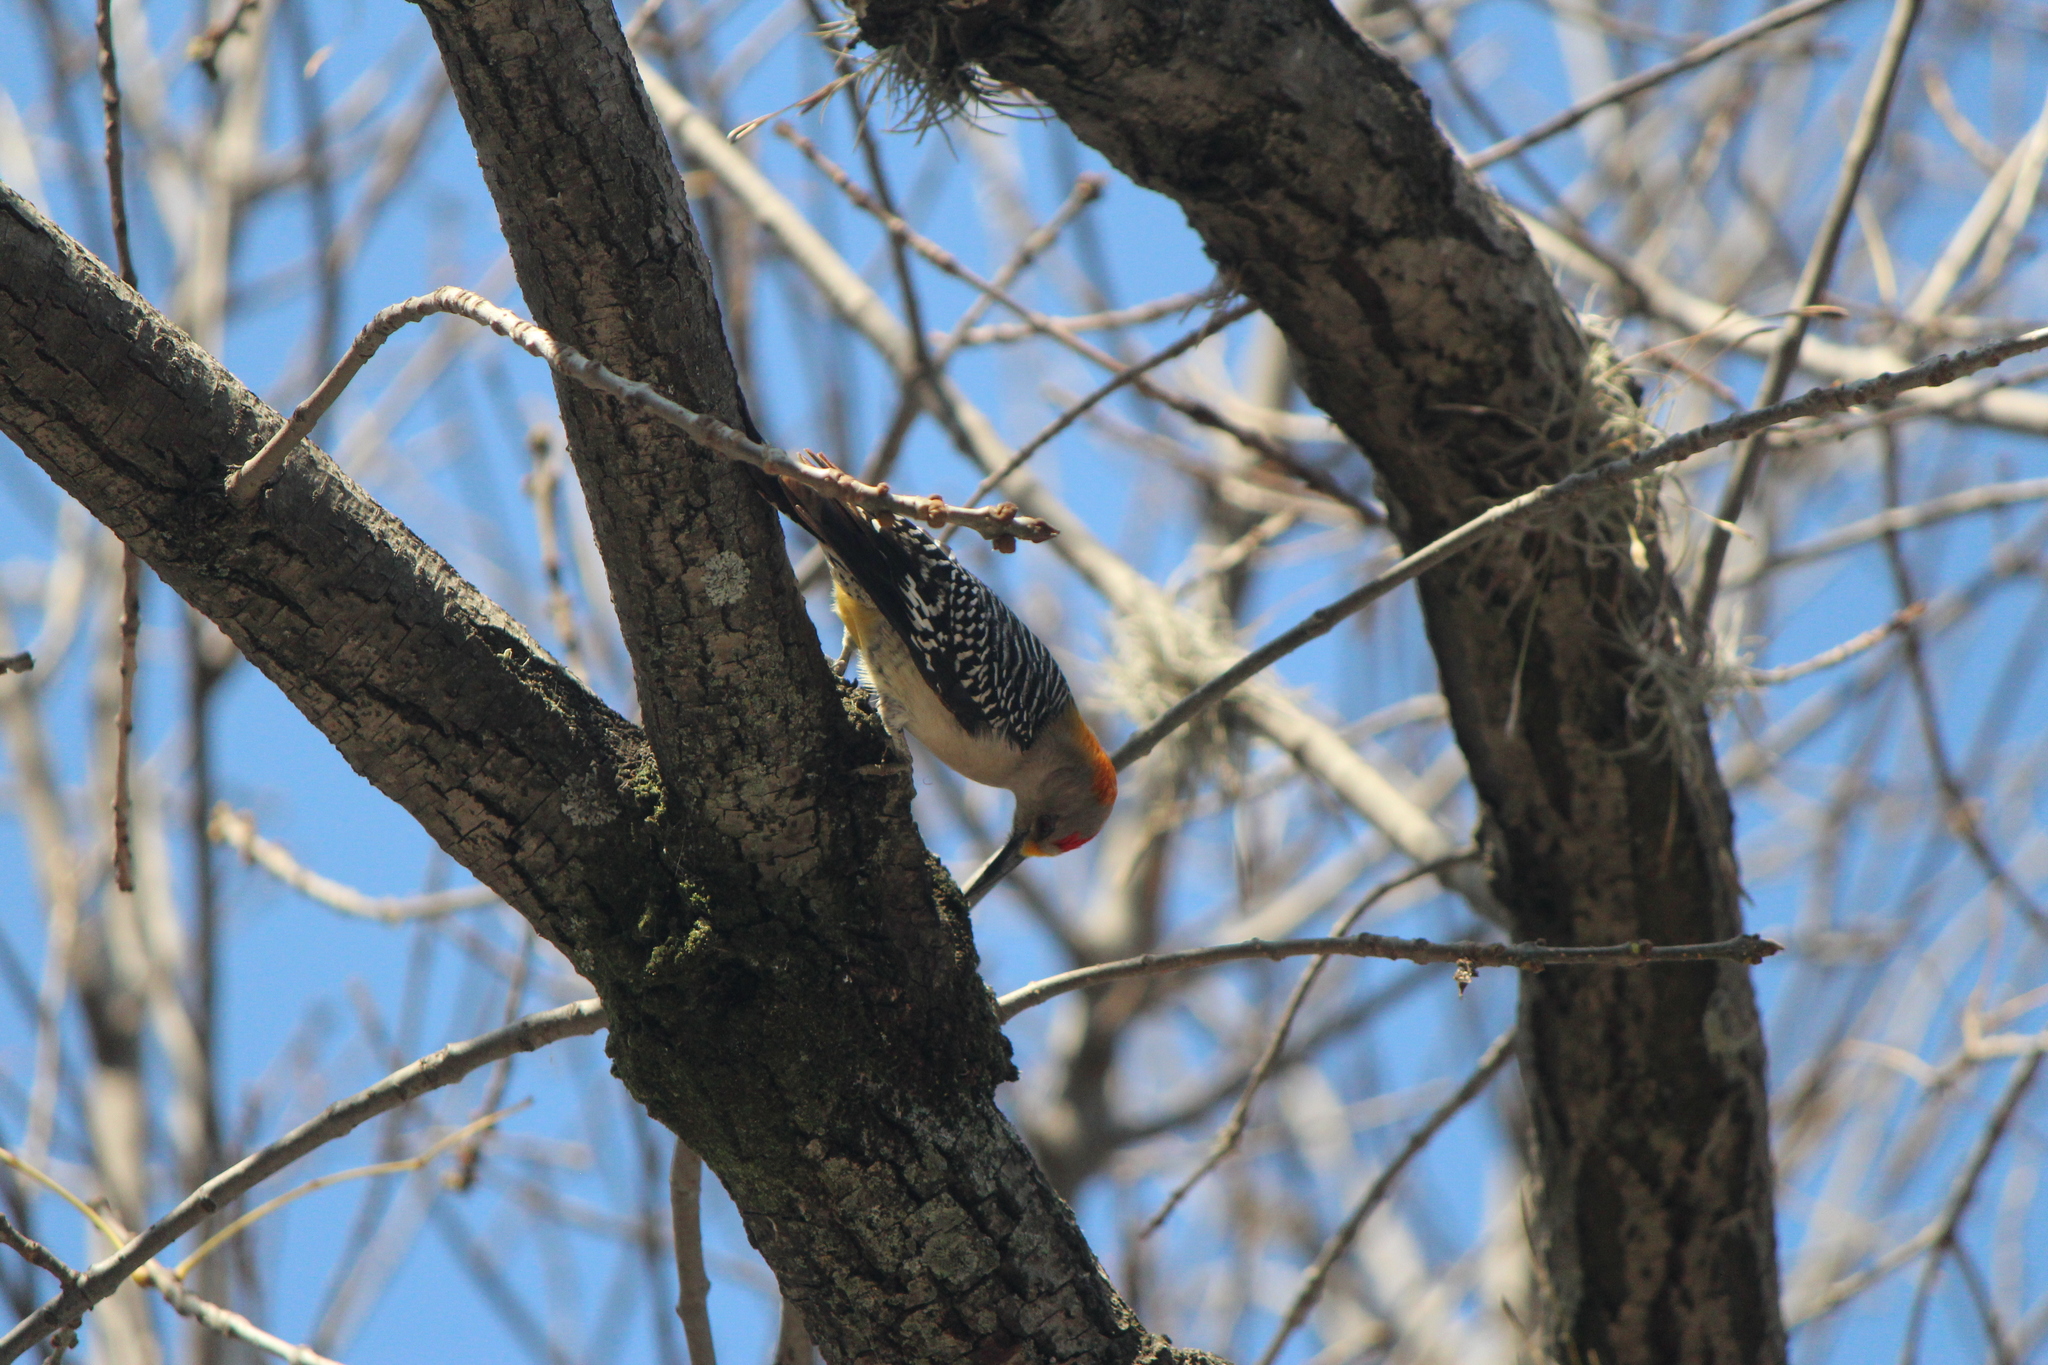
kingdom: Animalia
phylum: Chordata
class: Aves
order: Piciformes
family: Picidae
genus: Melanerpes
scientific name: Melanerpes aurifrons
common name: Golden-fronted woodpecker
